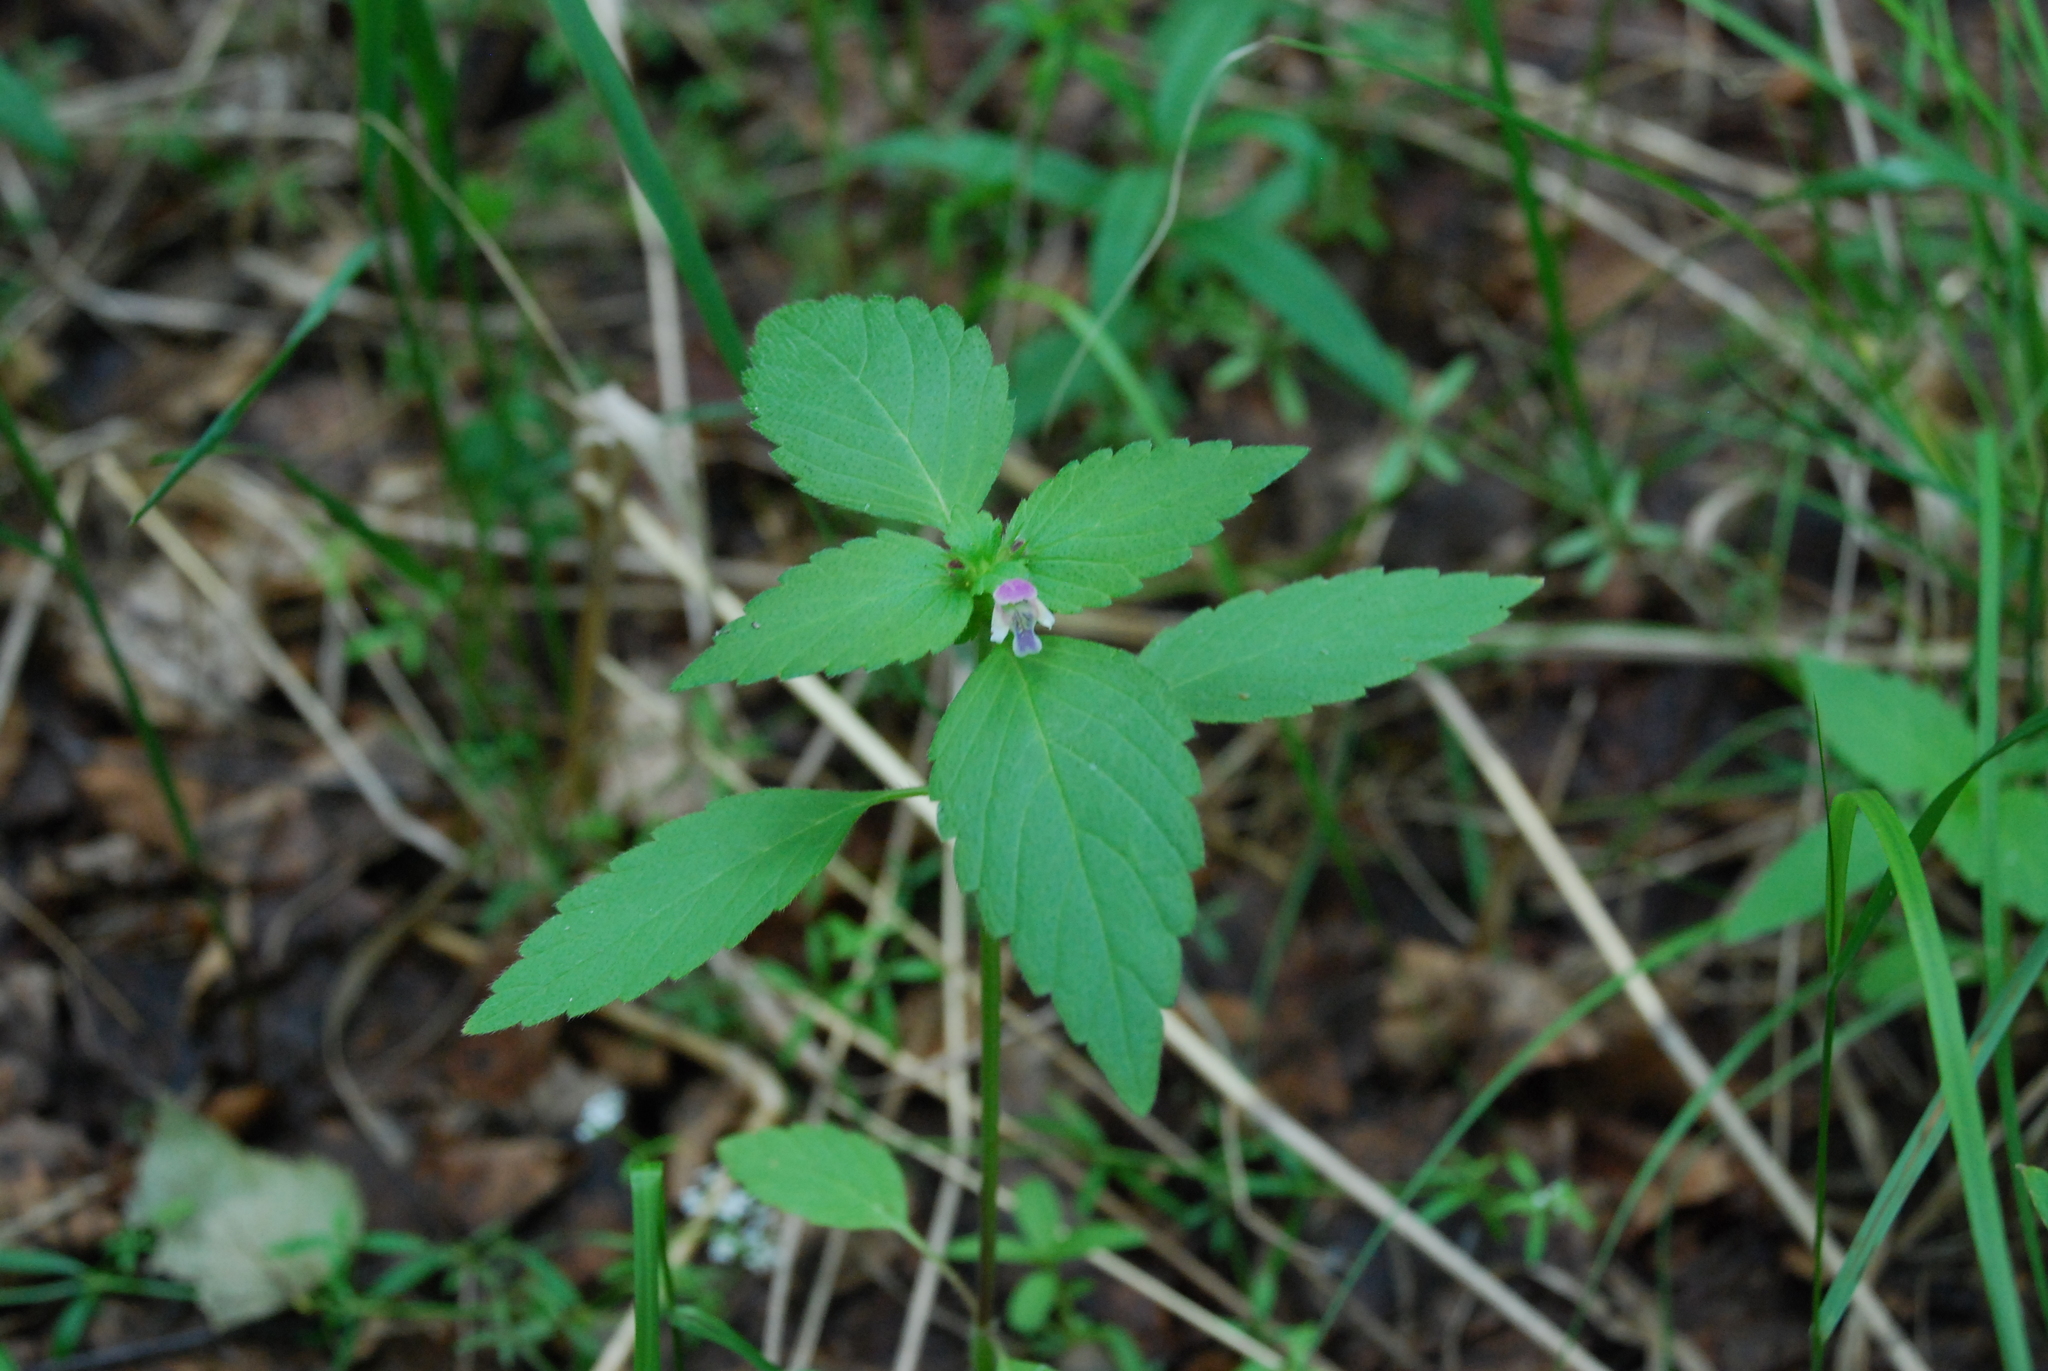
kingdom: Plantae
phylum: Tracheophyta
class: Magnoliopsida
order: Lamiales
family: Lamiaceae
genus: Galeopsis
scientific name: Galeopsis bifida
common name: Bifid hemp-nettle
